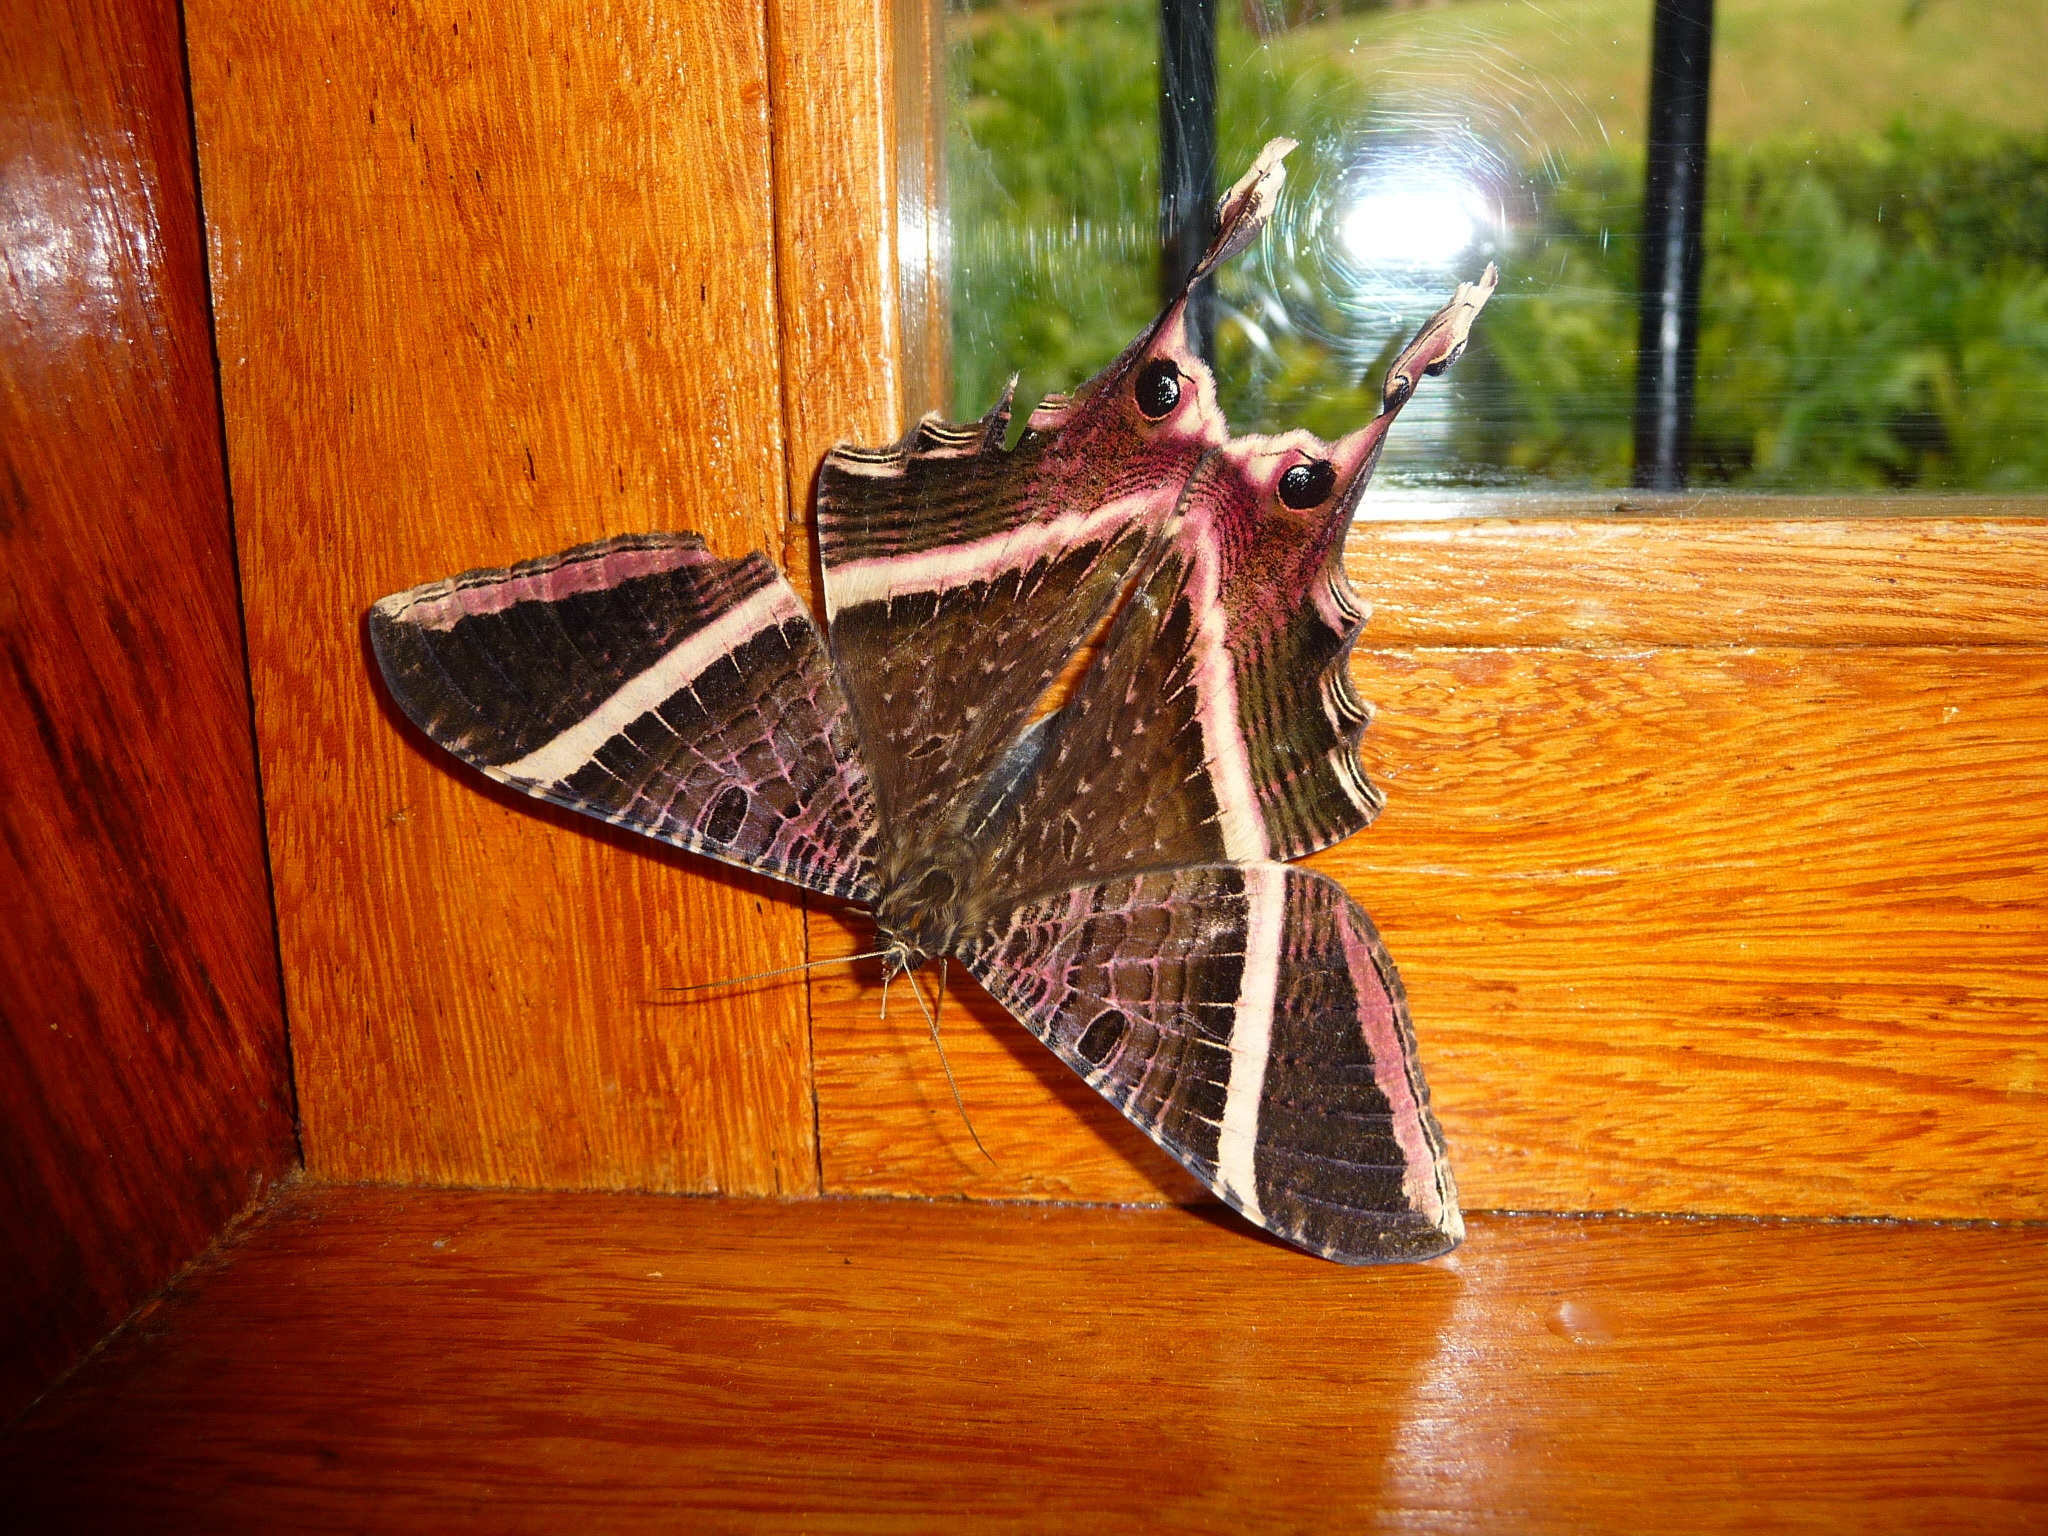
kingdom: Animalia
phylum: Arthropoda
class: Insecta
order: Lepidoptera
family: Sematuridae
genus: Nothus
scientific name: Nothus lunus
